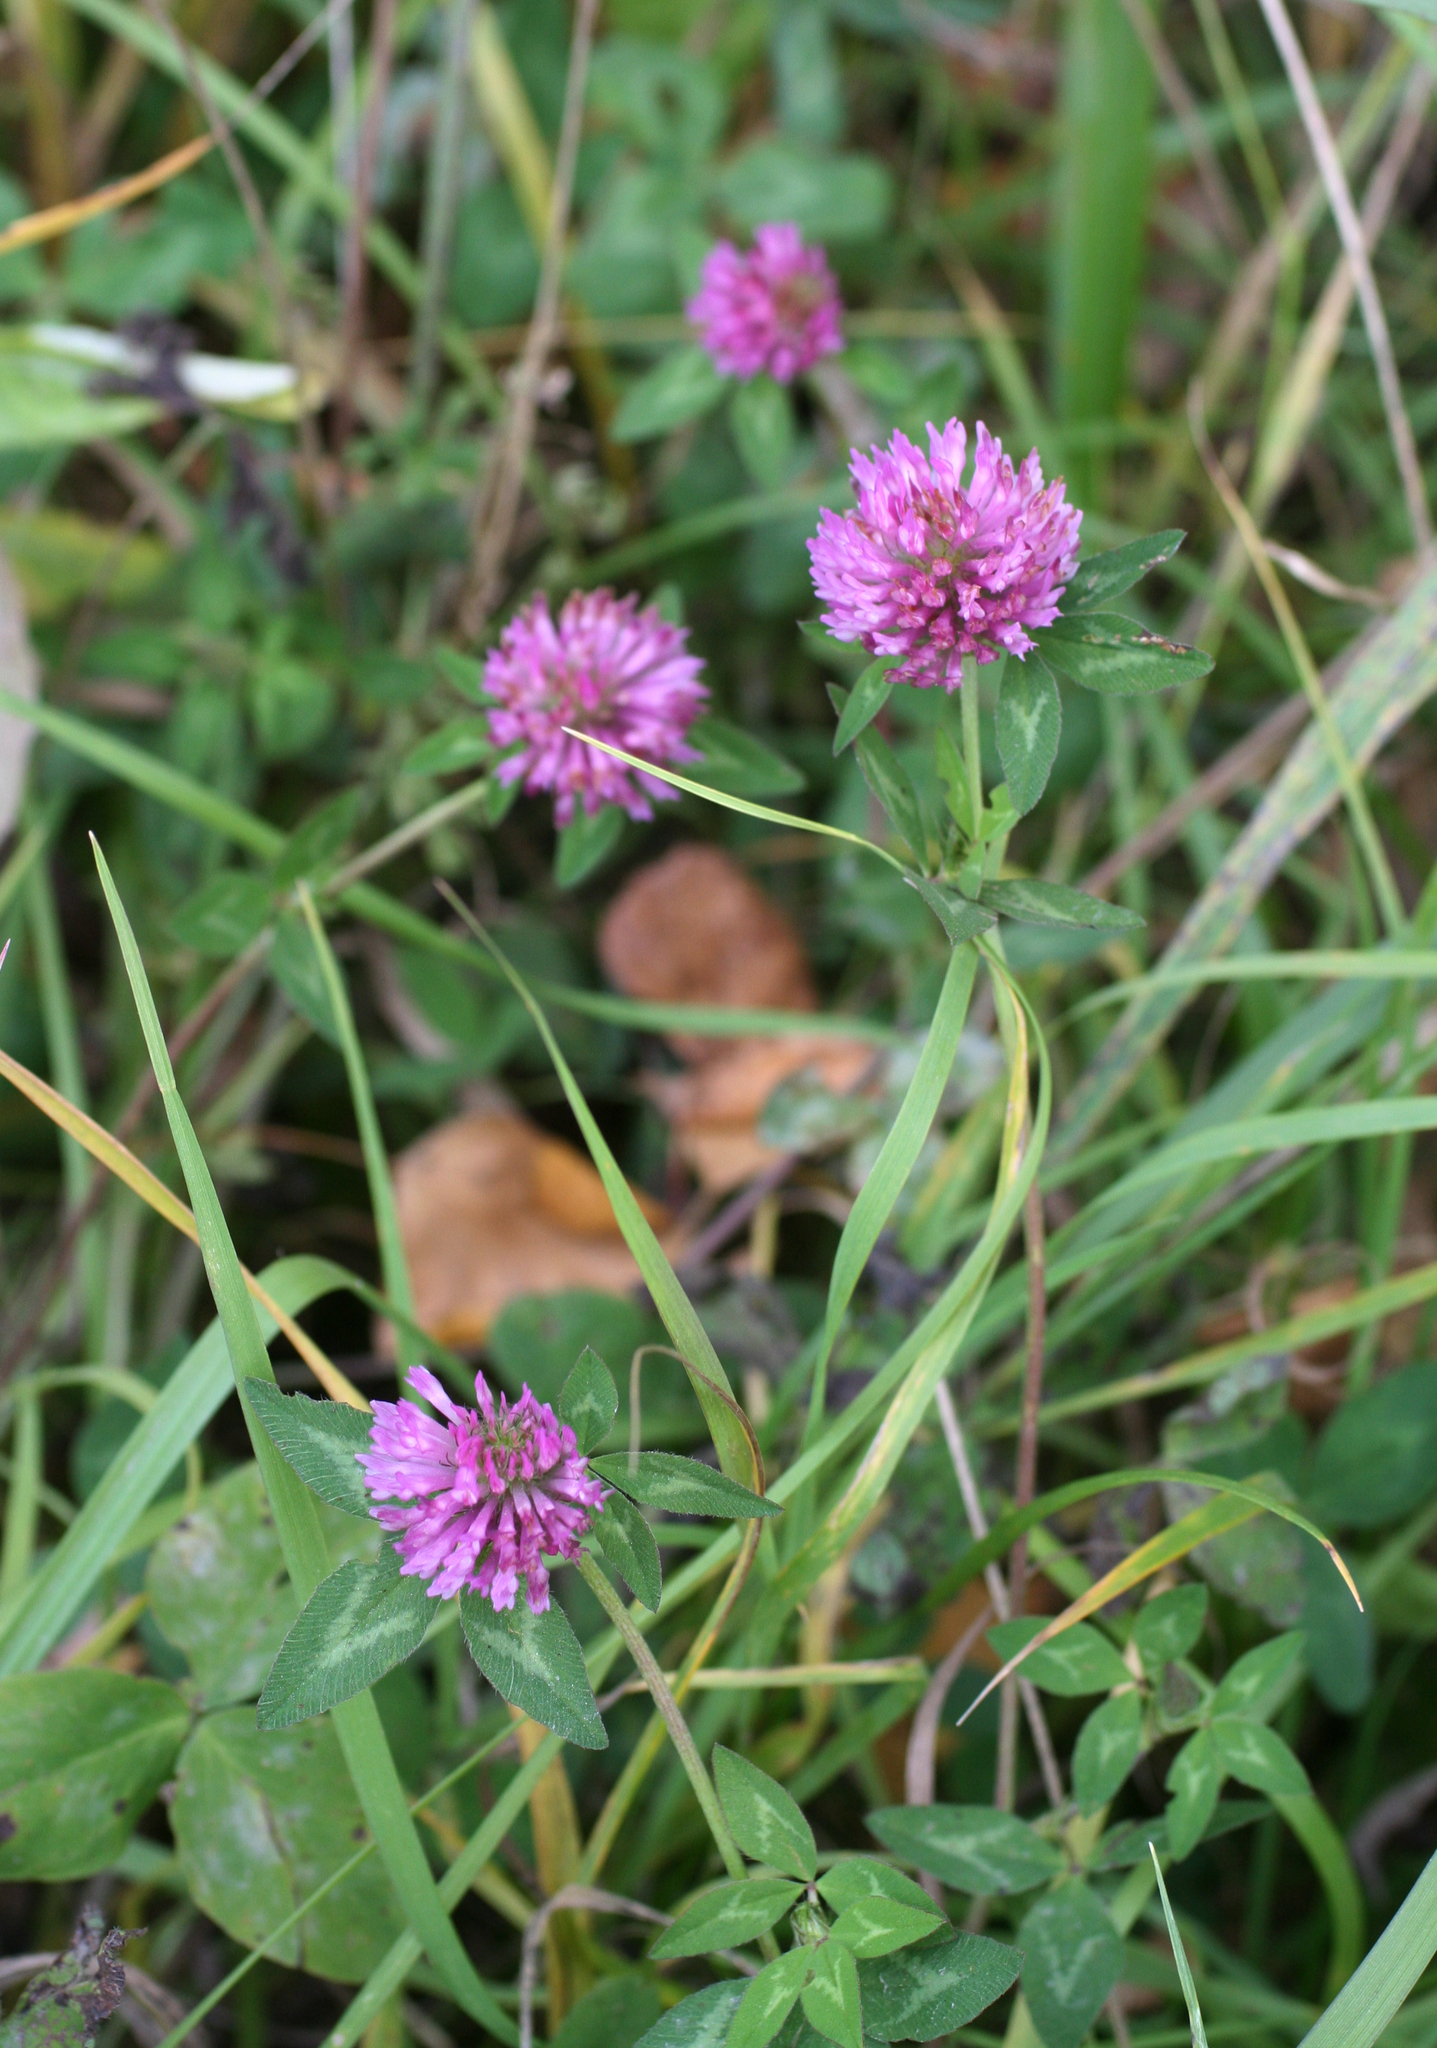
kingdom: Plantae
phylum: Tracheophyta
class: Magnoliopsida
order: Fabales
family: Fabaceae
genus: Trifolium
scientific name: Trifolium pratense
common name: Red clover
